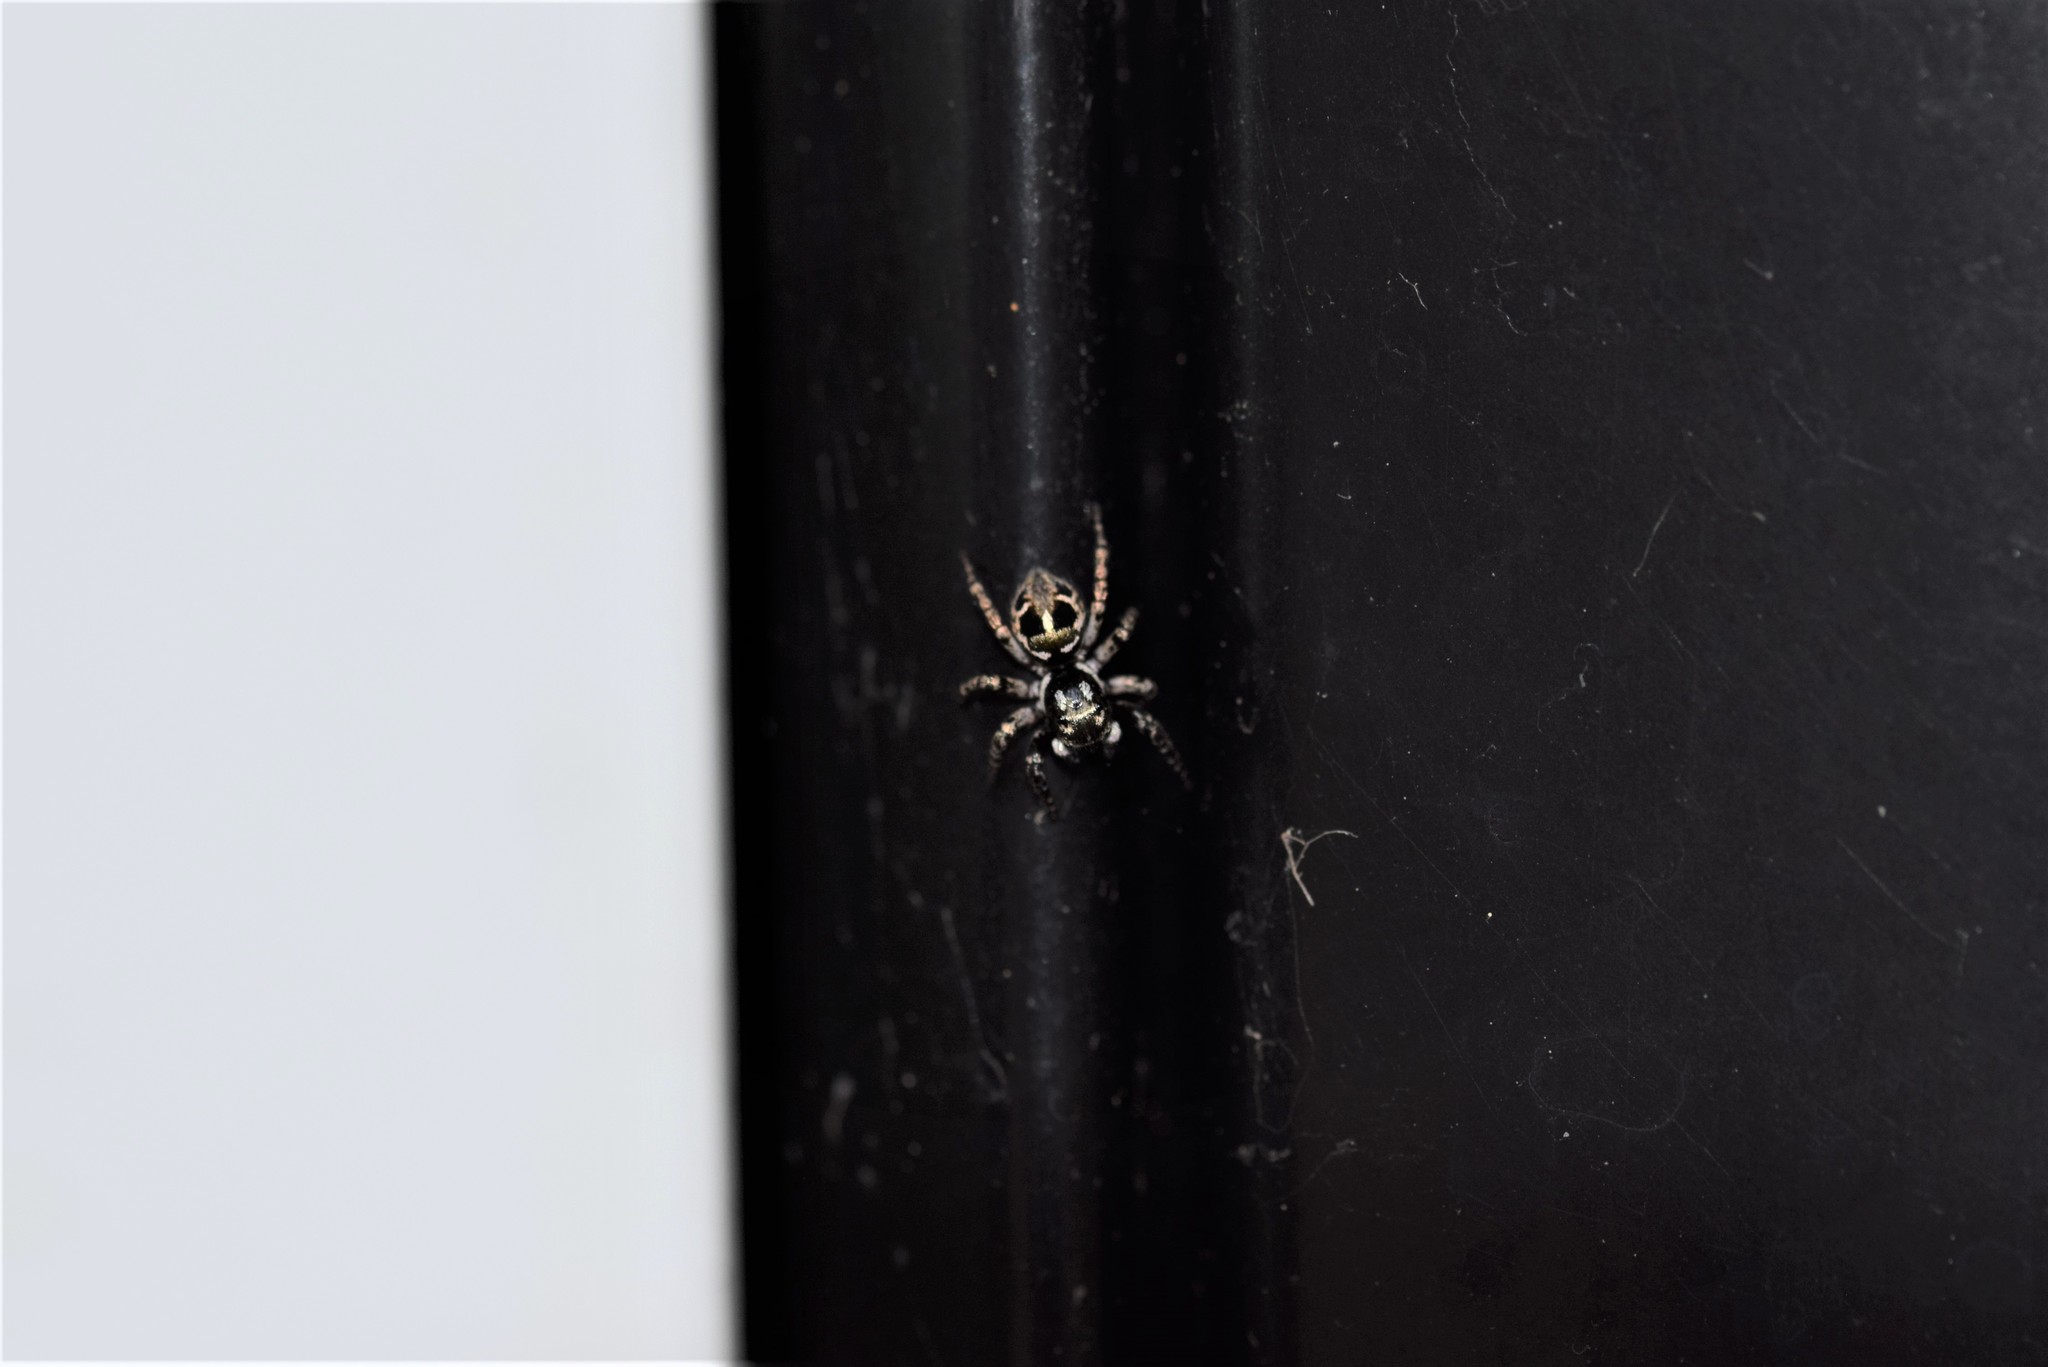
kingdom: Animalia
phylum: Arthropoda
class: Arachnida
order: Araneae
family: Salticidae
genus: Anasaitis
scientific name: Anasaitis canosa
